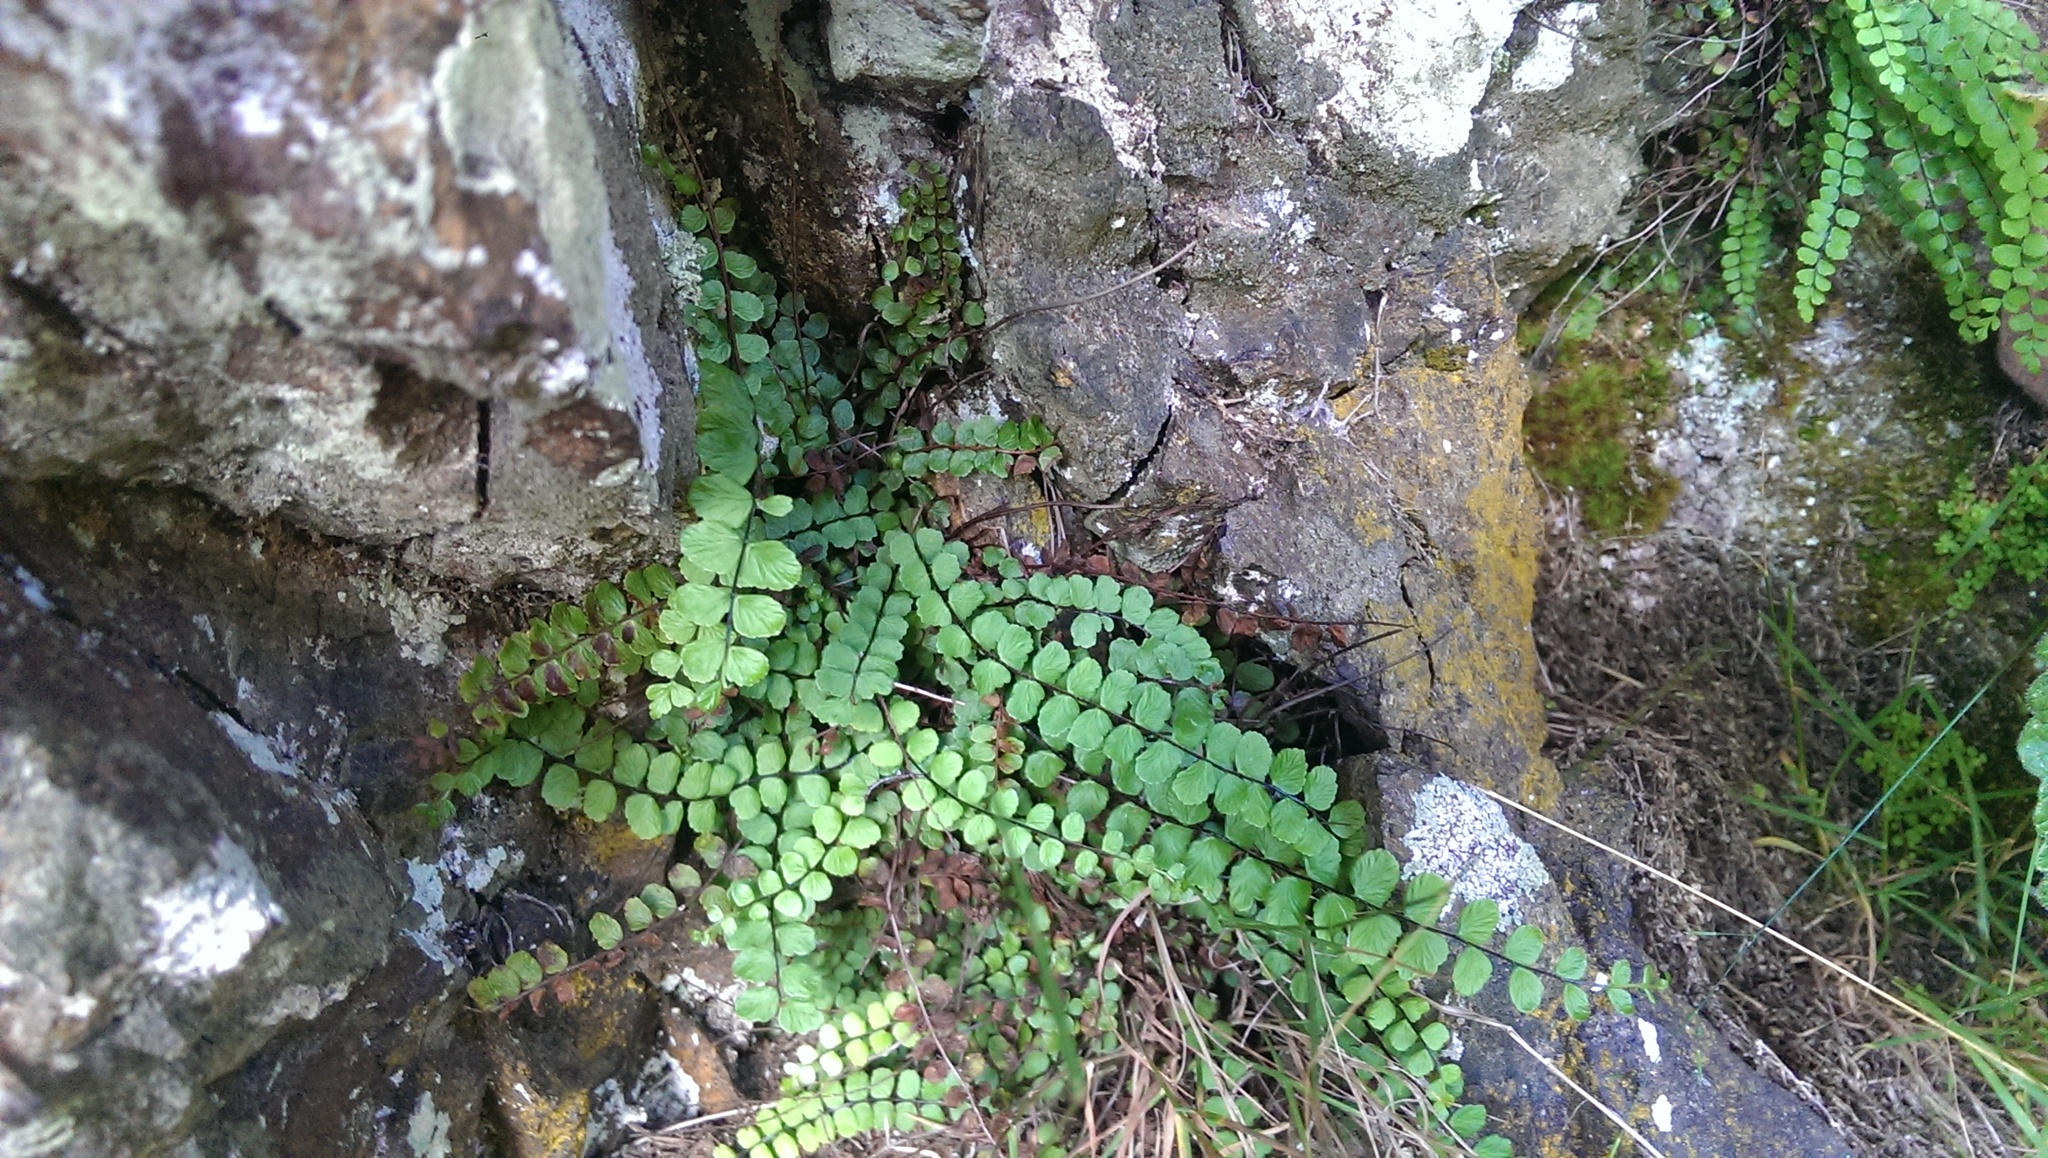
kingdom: Plantae
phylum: Tracheophyta
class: Polypodiopsida
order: Polypodiales
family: Aspleniaceae
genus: Asplenium
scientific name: Asplenium trichomanes
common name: Maidenhair spleenwort
